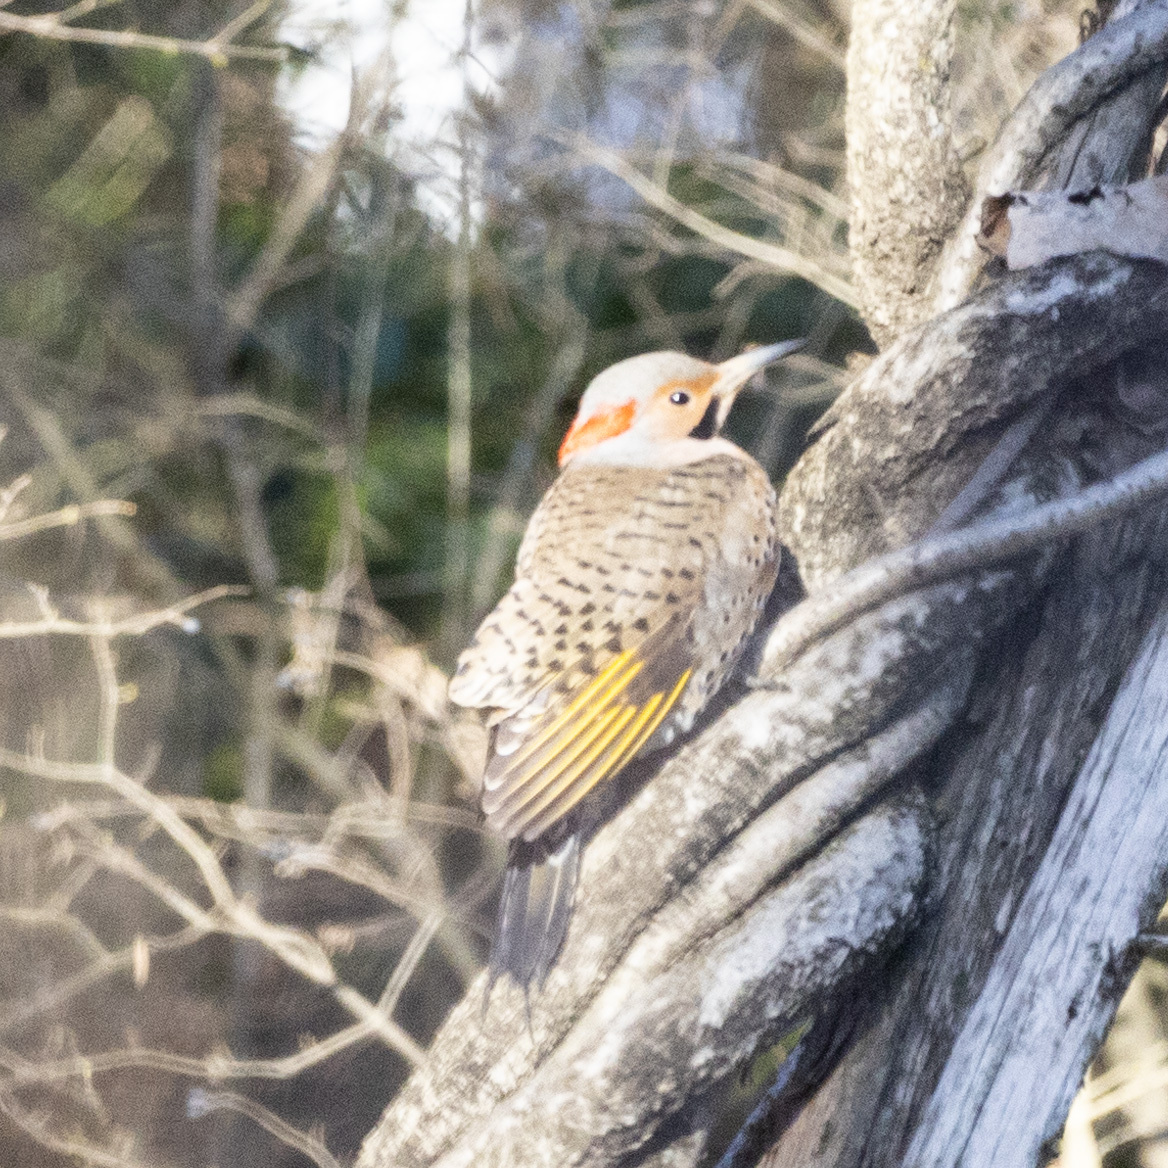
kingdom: Animalia
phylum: Chordata
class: Aves
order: Piciformes
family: Picidae
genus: Colaptes
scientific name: Colaptes auratus
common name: Northern flicker
